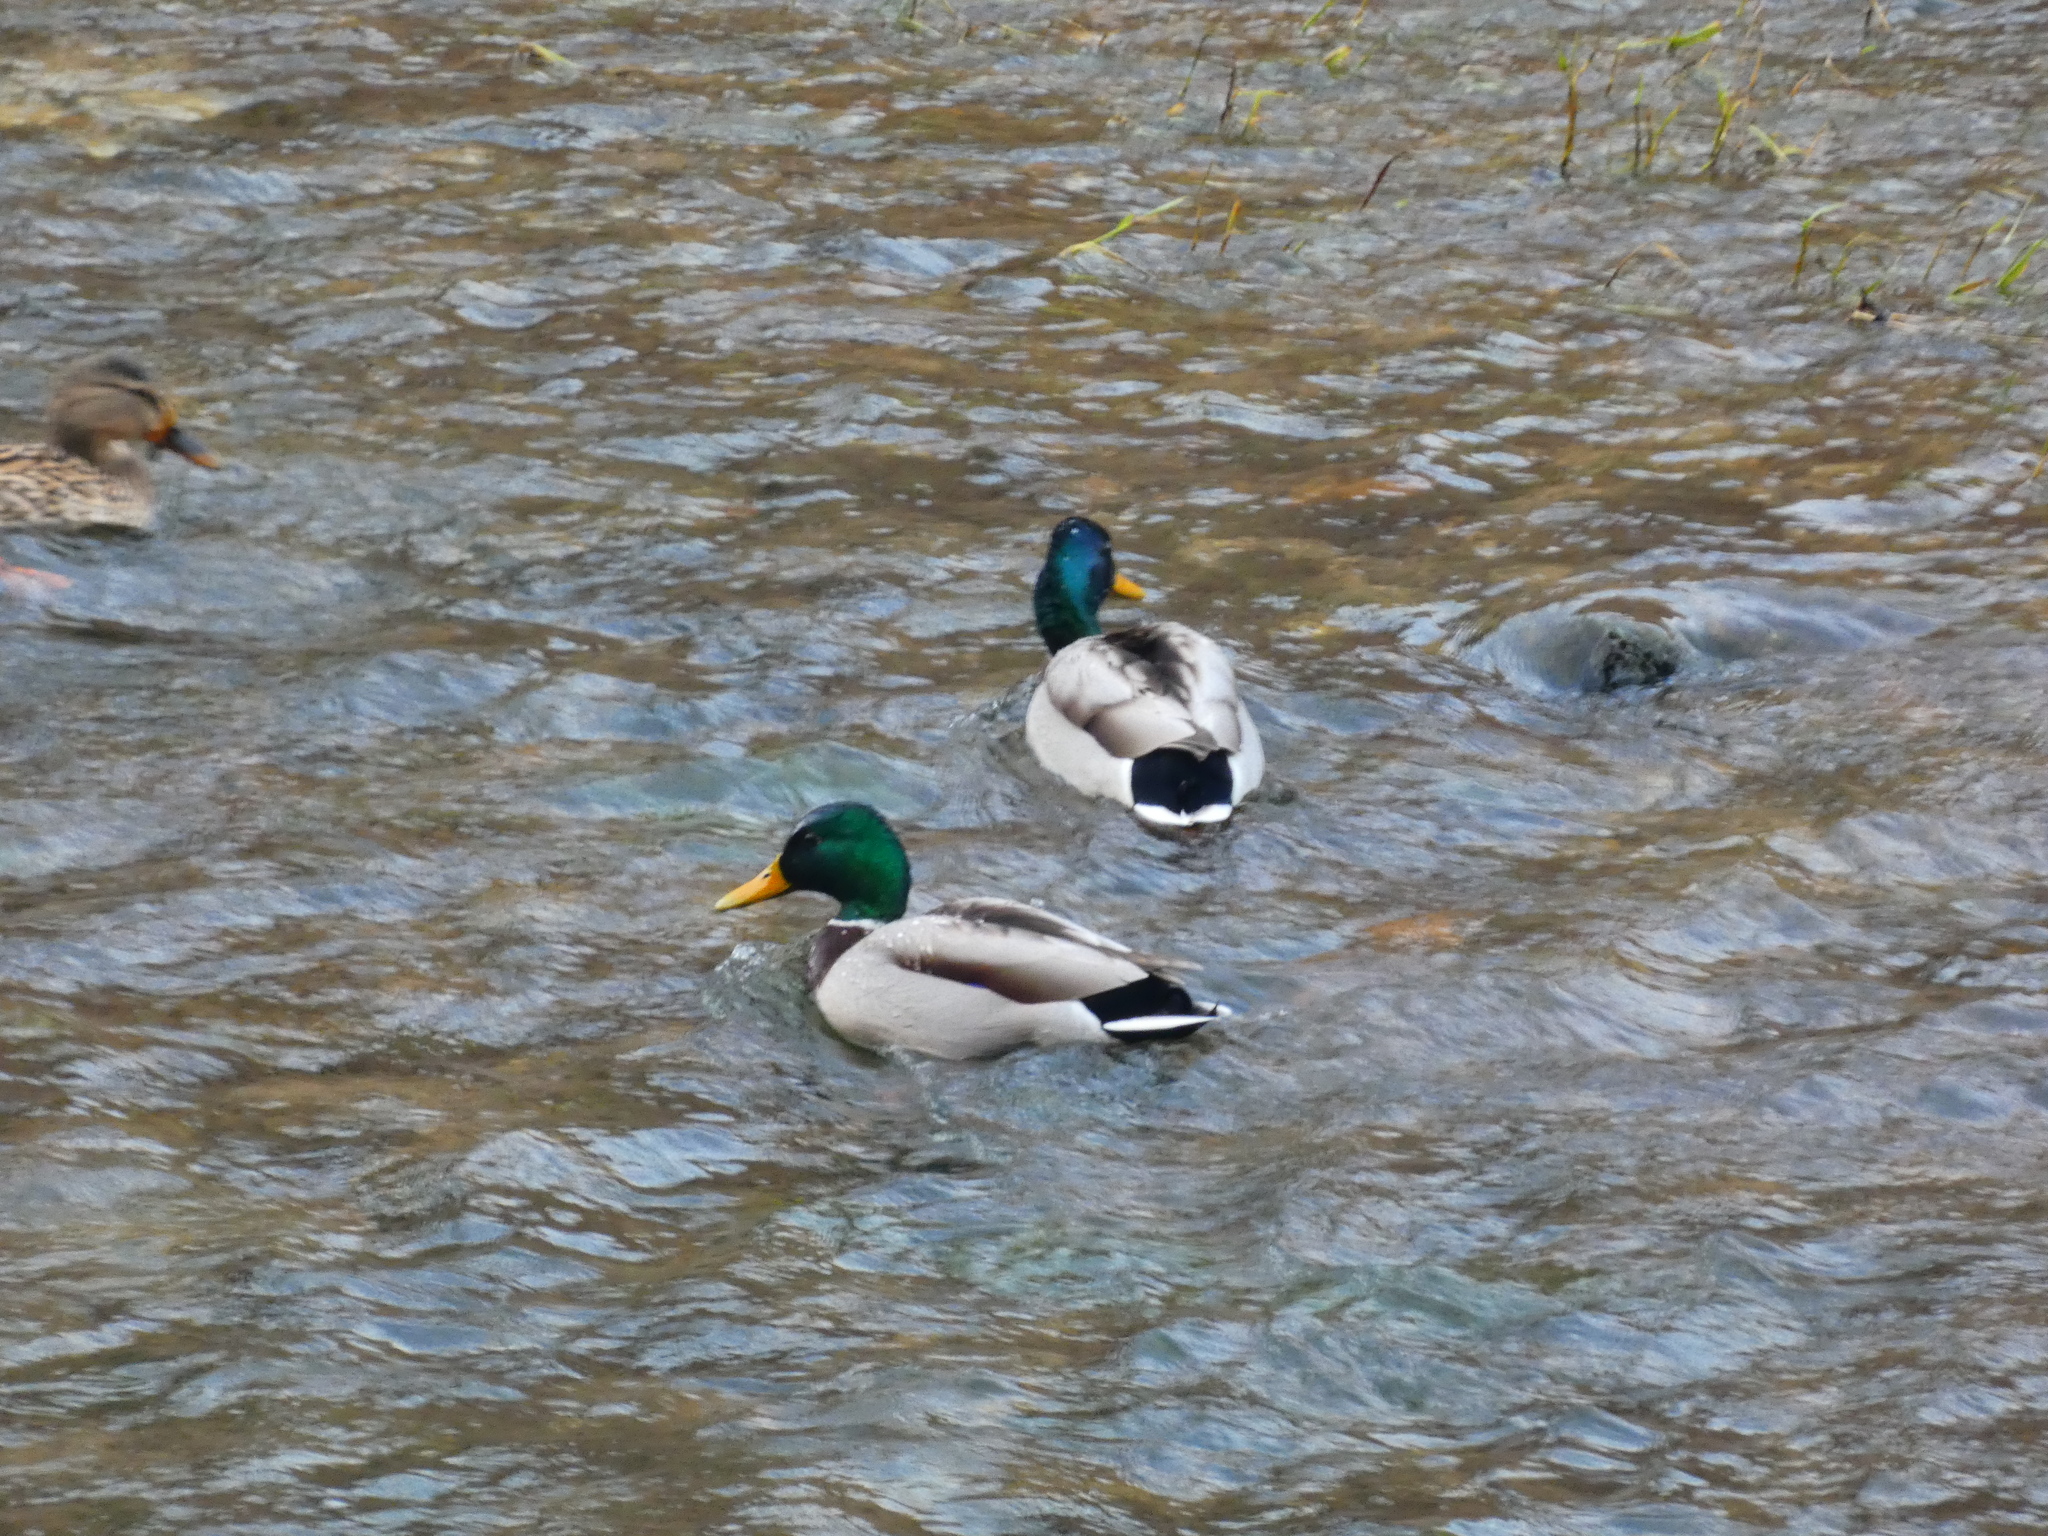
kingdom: Animalia
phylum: Chordata
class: Aves
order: Anseriformes
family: Anatidae
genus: Anas
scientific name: Anas platyrhynchos
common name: Mallard
